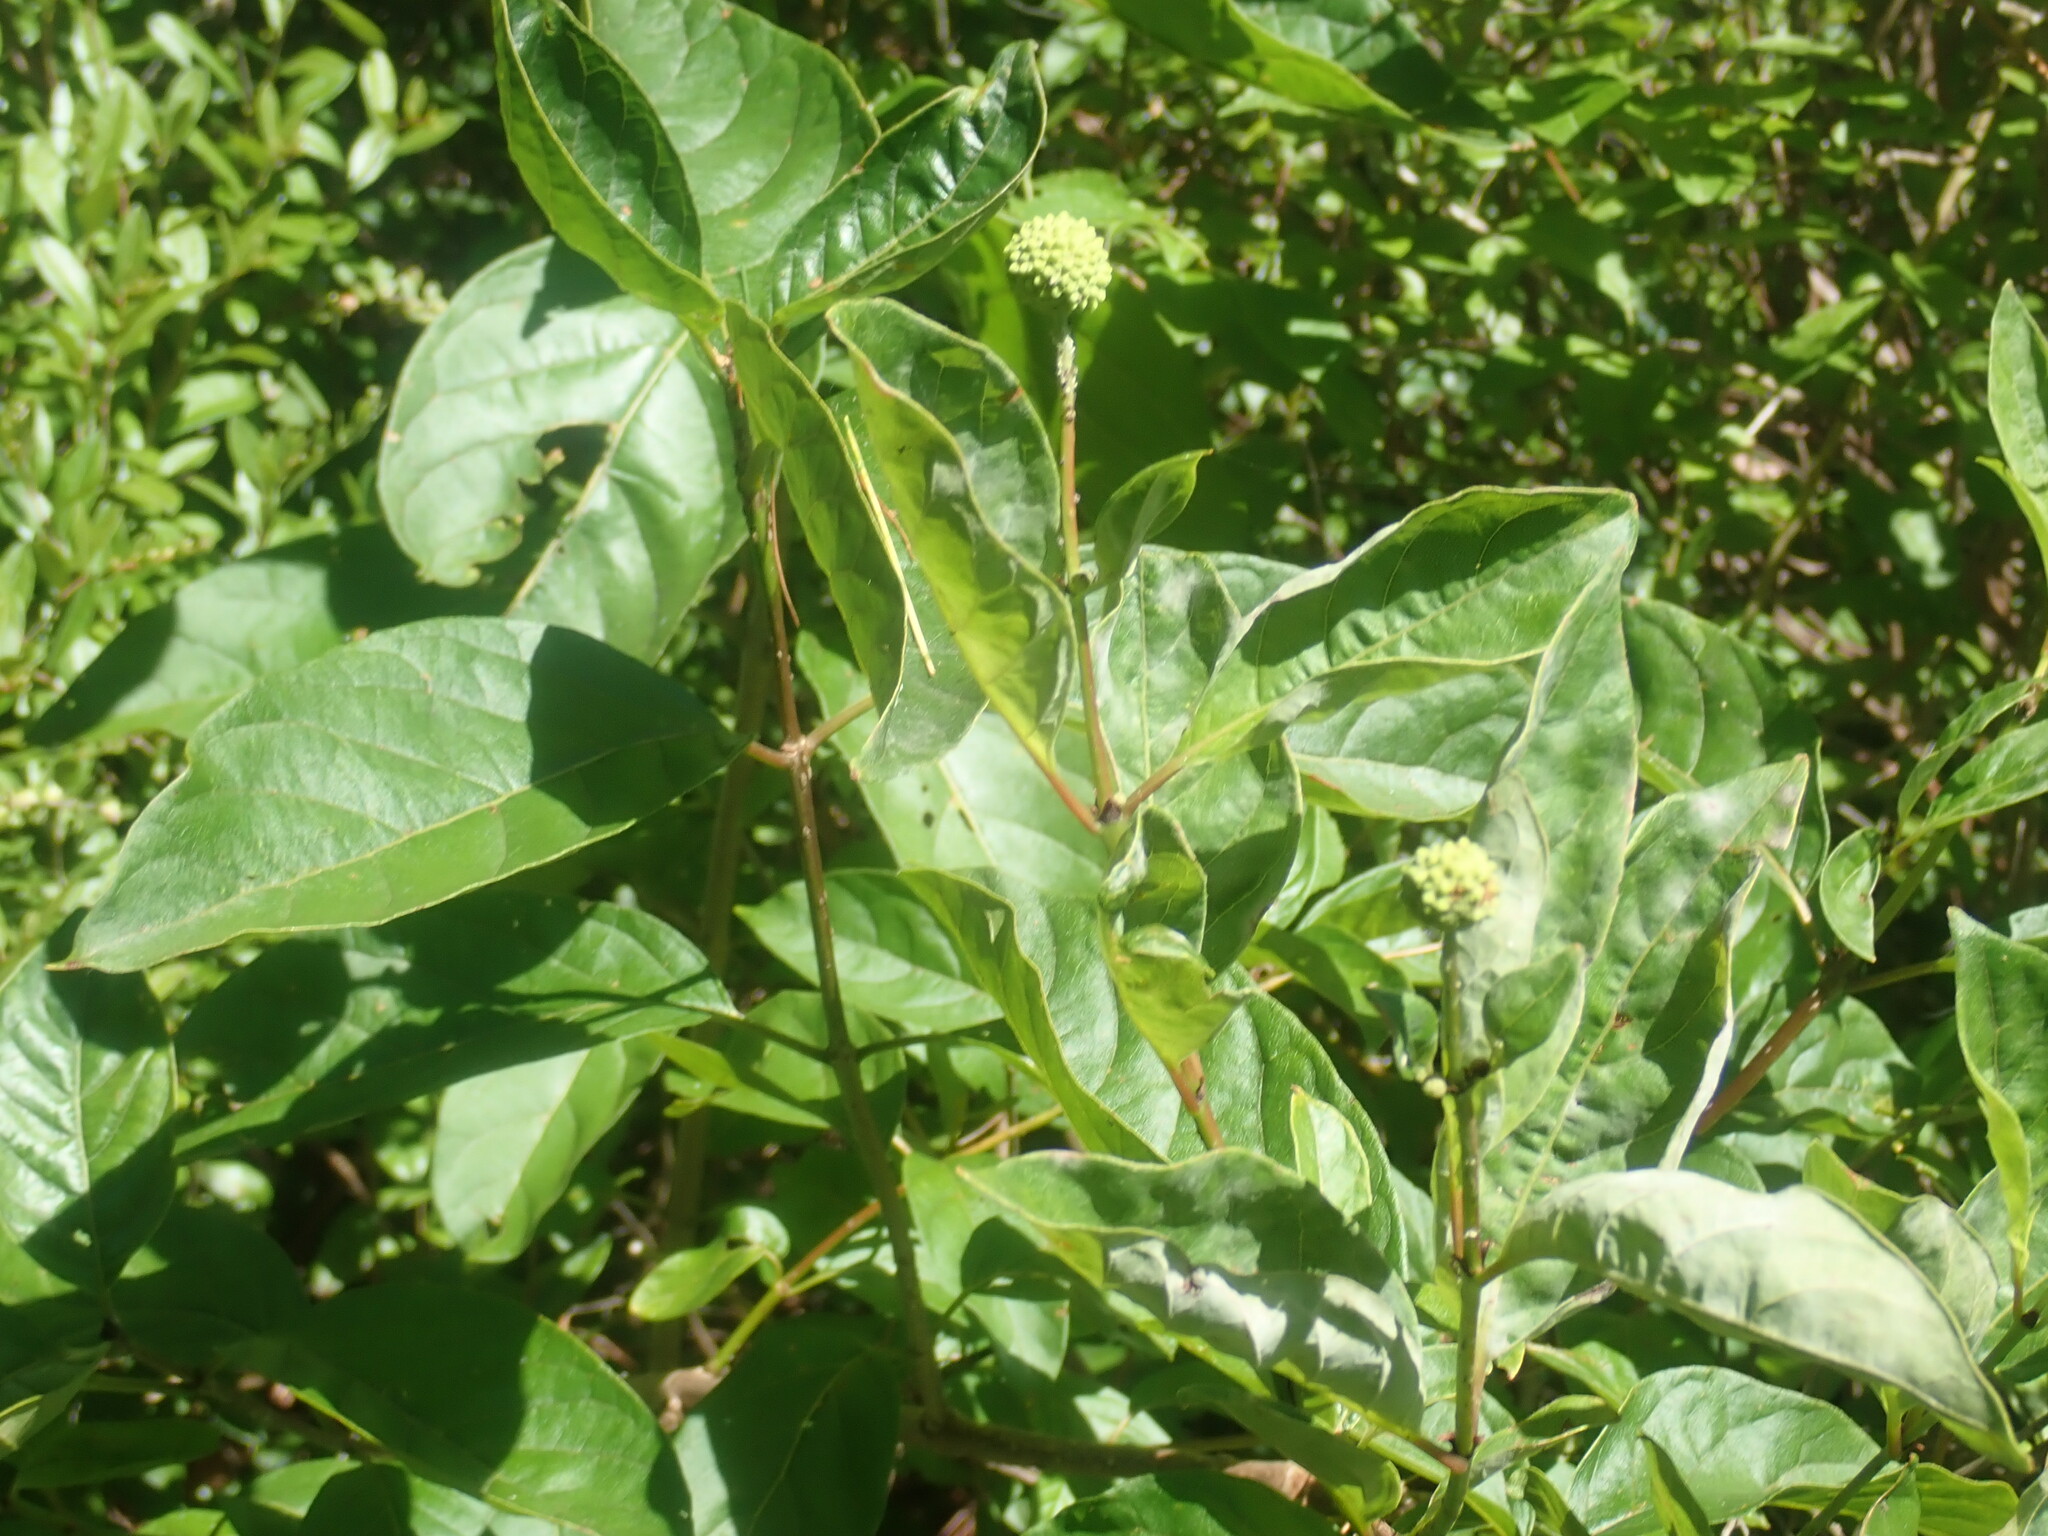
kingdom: Plantae
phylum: Tracheophyta
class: Magnoliopsida
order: Gentianales
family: Rubiaceae
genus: Cephalanthus
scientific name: Cephalanthus occidentalis
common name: Button-willow
